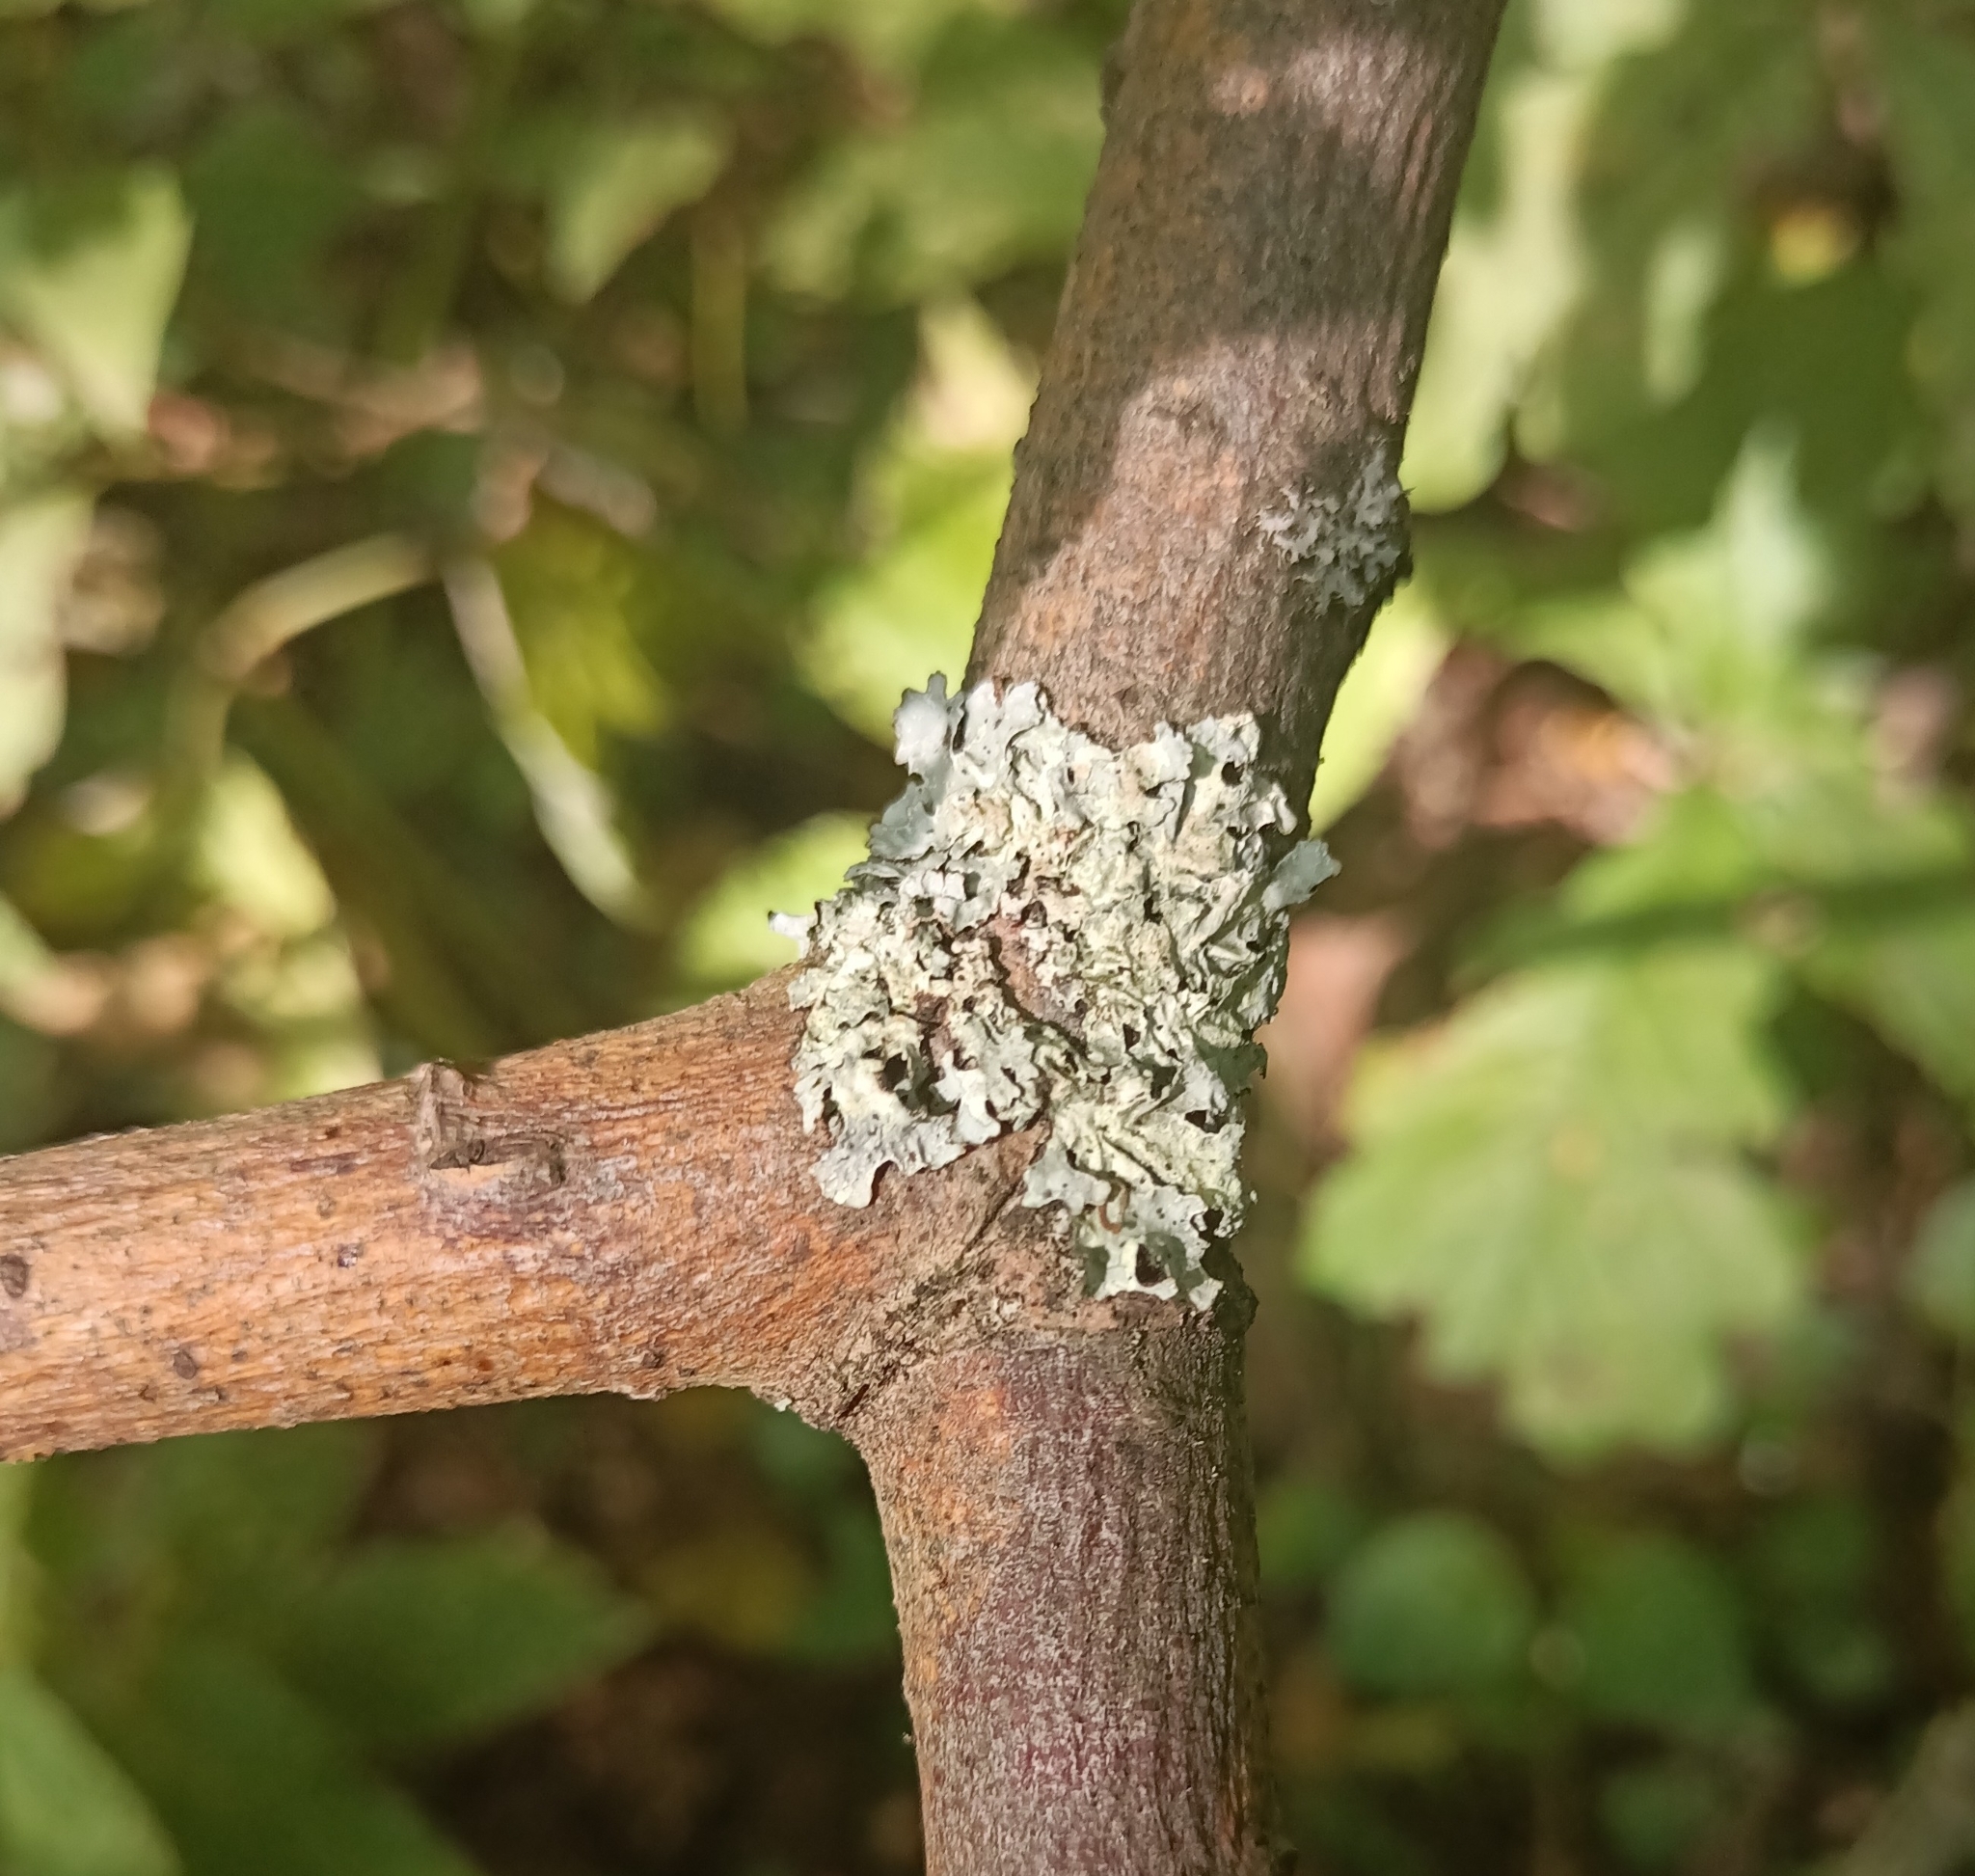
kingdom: Fungi
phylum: Ascomycota
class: Lecanoromycetes
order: Lecanorales
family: Parmeliaceae
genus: Parmelia
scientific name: Parmelia sulcata
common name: Netted shield lichen
